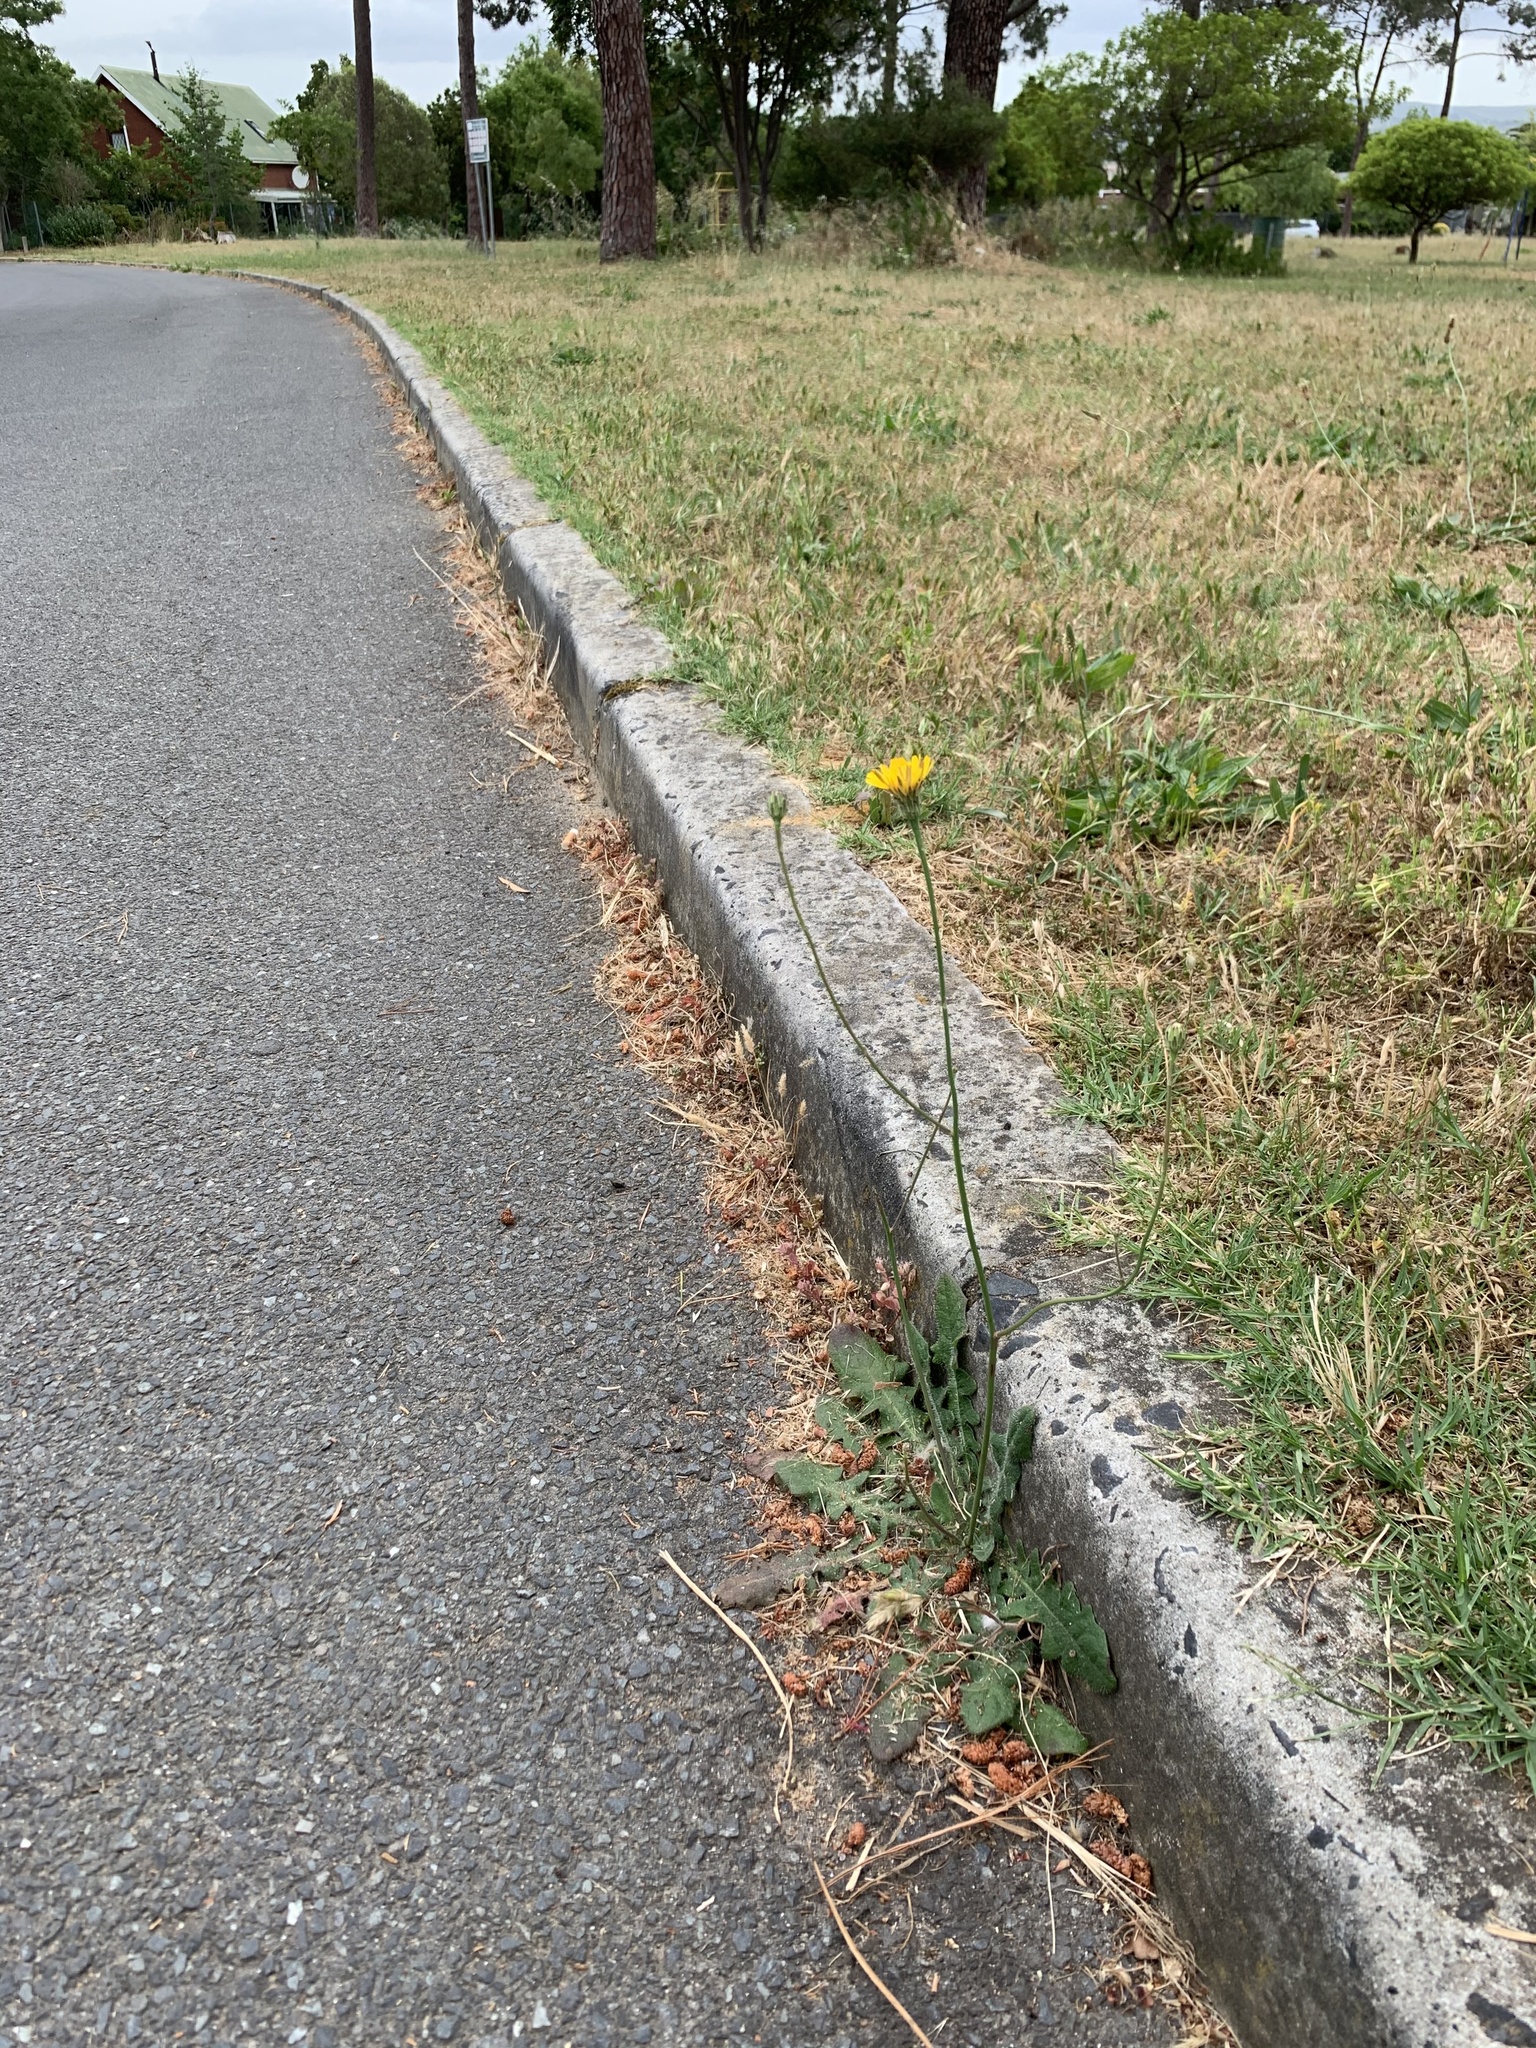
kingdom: Plantae
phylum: Tracheophyta
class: Magnoliopsida
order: Asterales
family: Asteraceae
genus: Hypochaeris
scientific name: Hypochaeris radicata
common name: Flatweed
